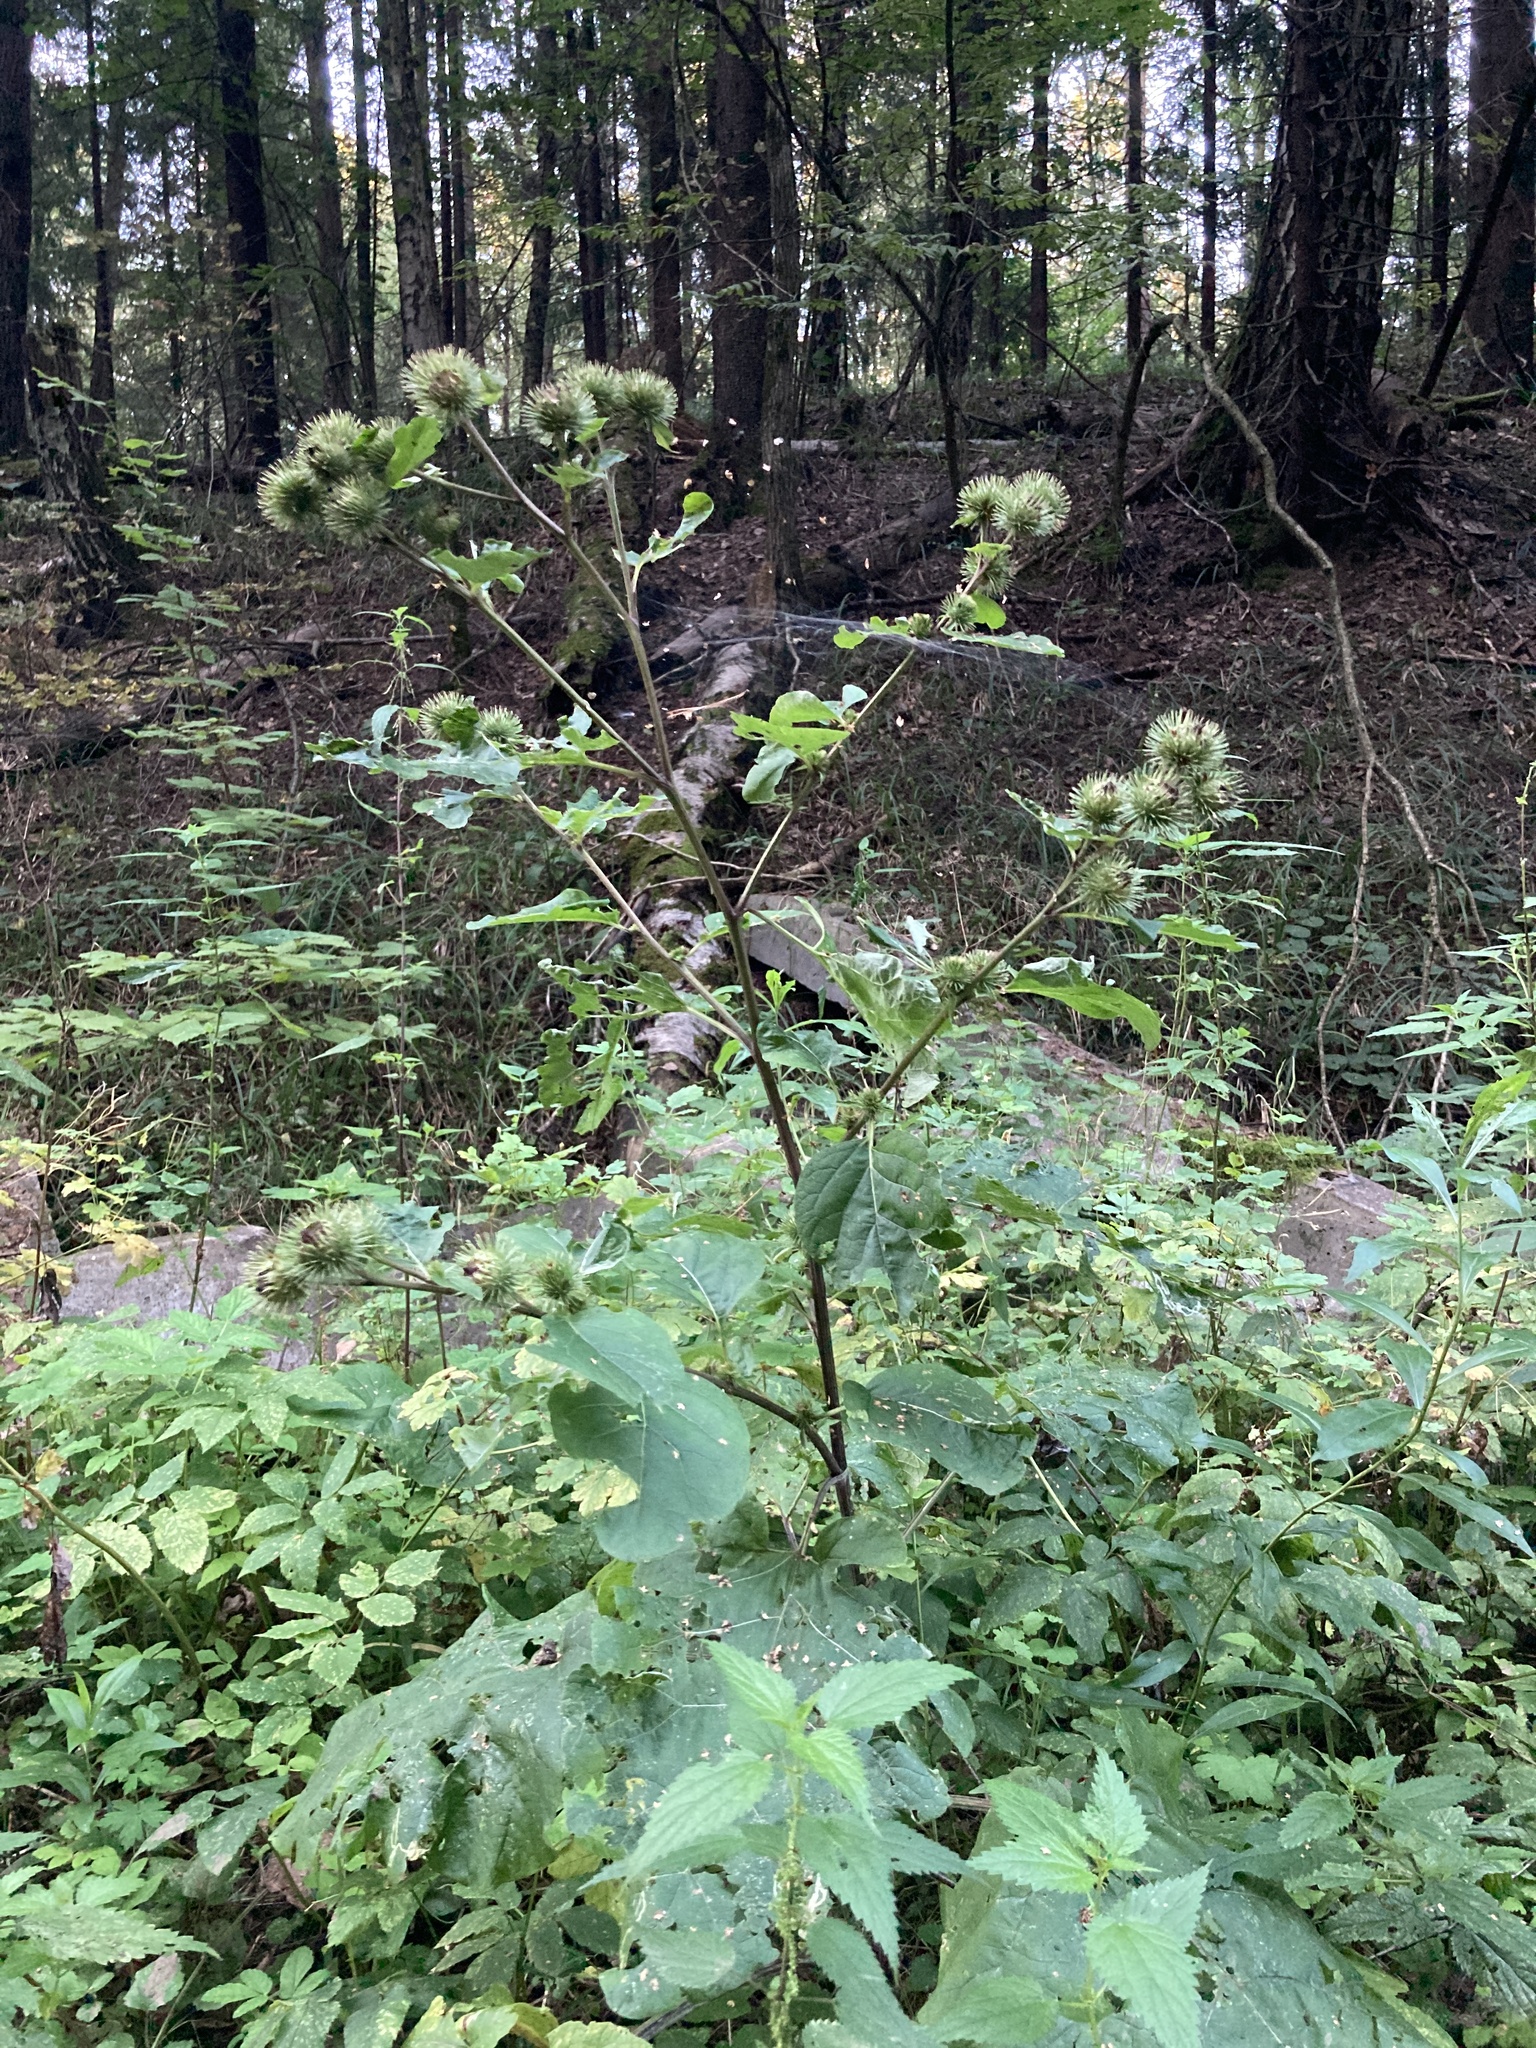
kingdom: Plantae
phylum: Tracheophyta
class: Magnoliopsida
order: Asterales
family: Asteraceae
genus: Arctium
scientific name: Arctium lappa
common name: Greater burdock
